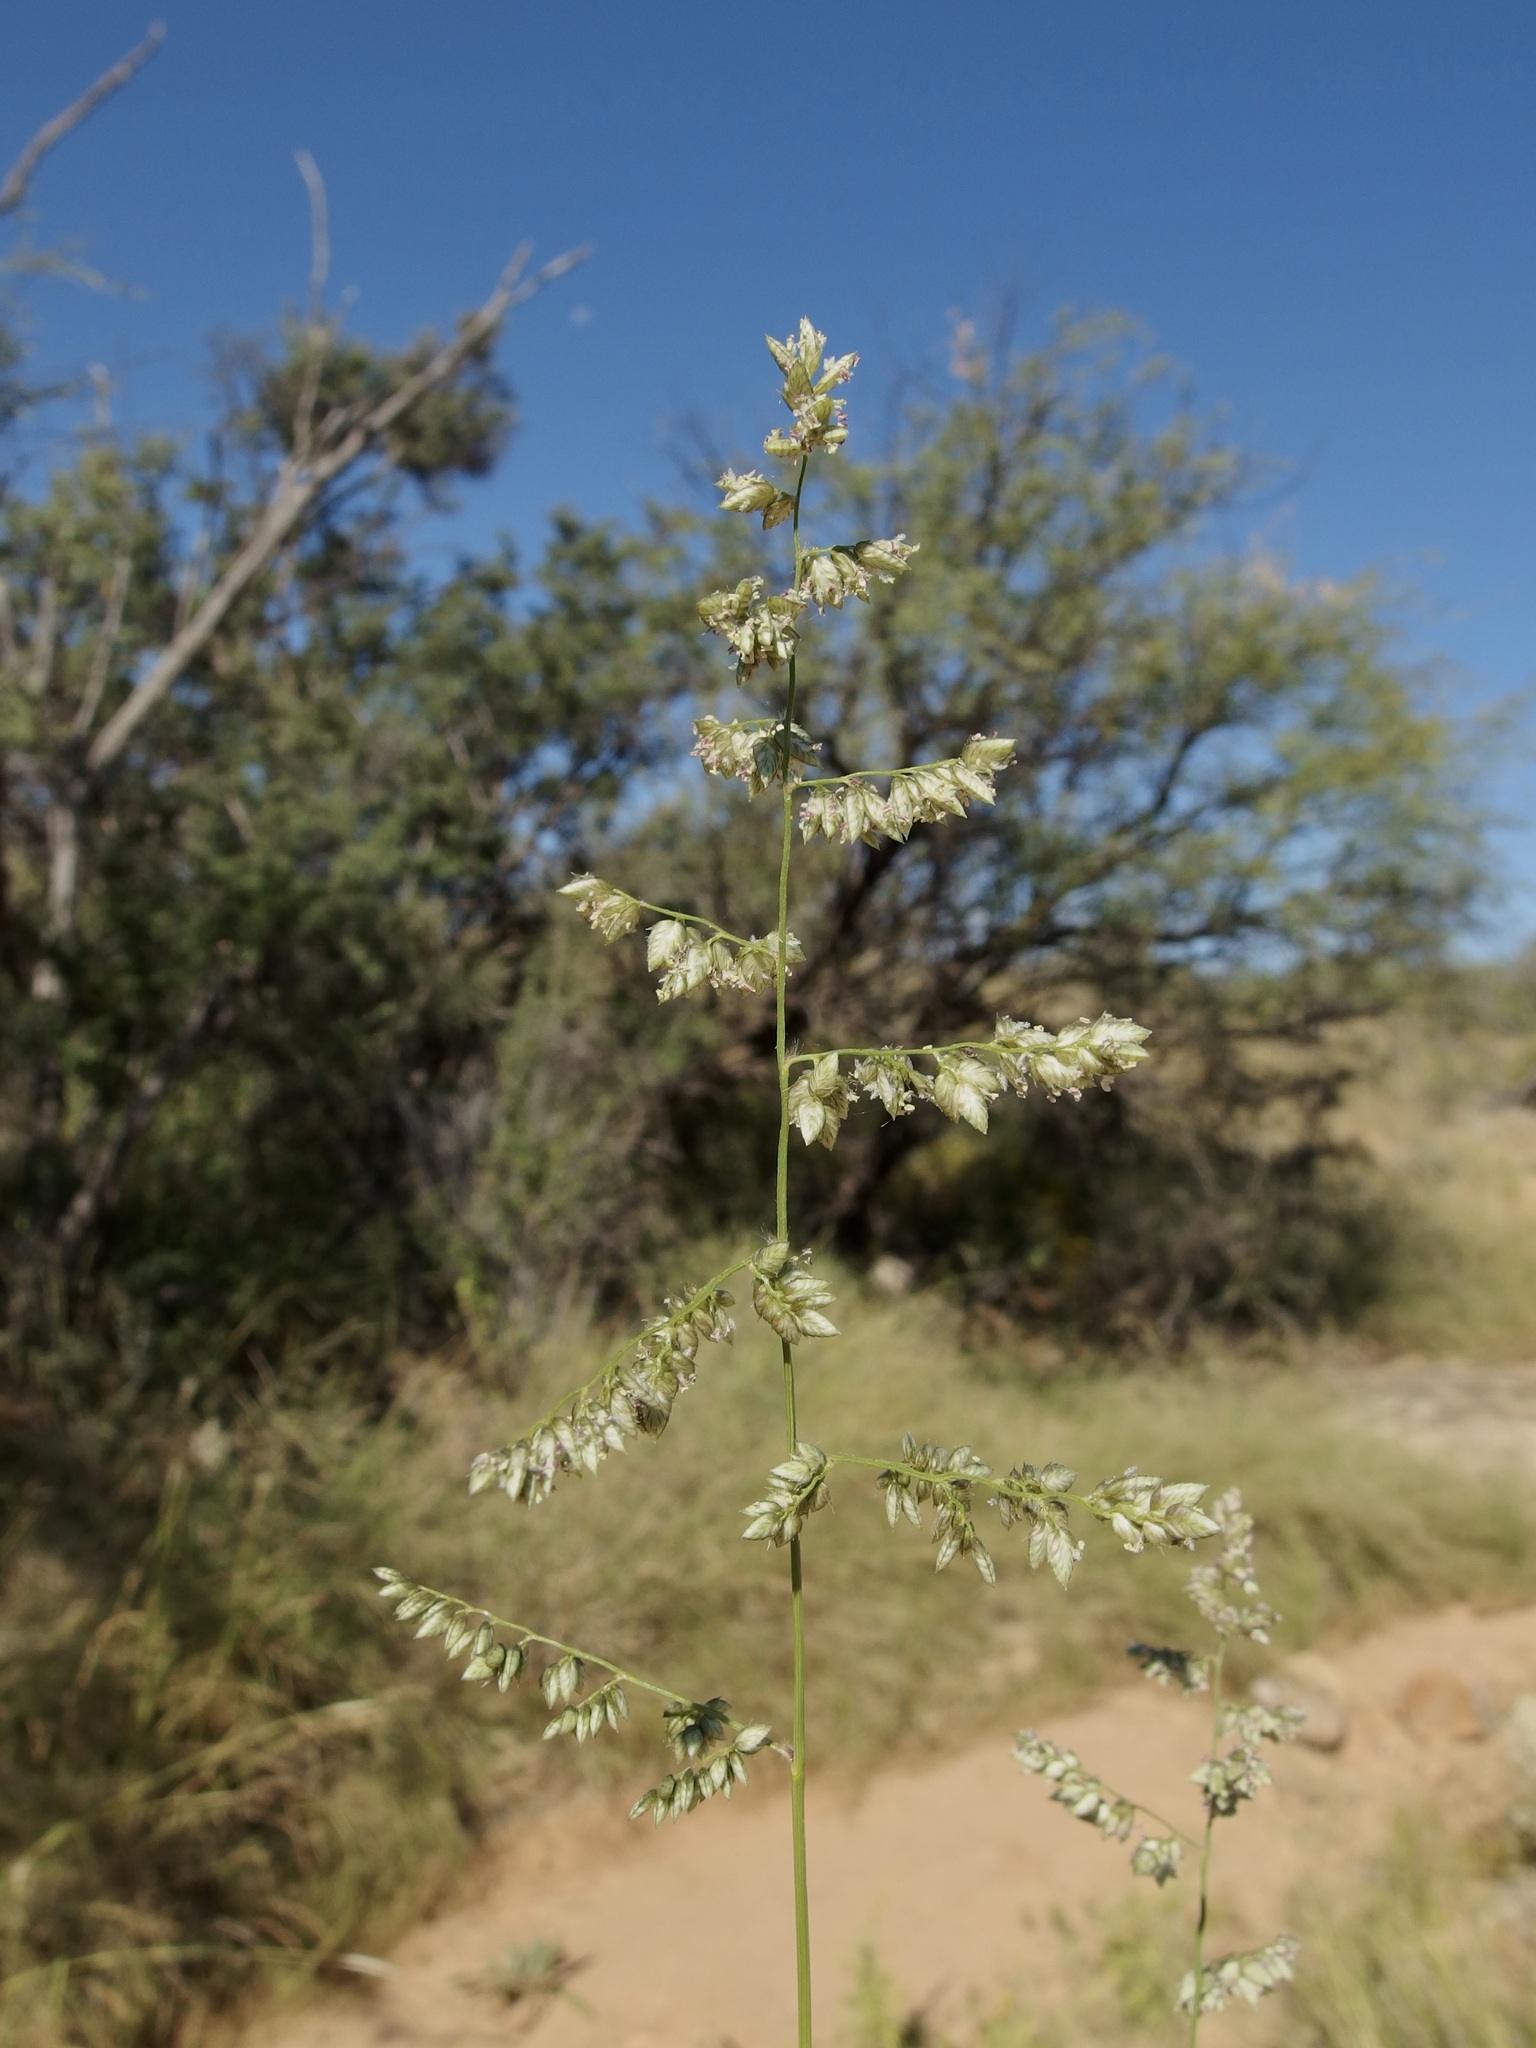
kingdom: Plantae
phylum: Tracheophyta
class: Liliopsida
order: Poales
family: Poaceae
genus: Eragrostis
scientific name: Eragrostis echinochloidea
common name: African lovegrass
